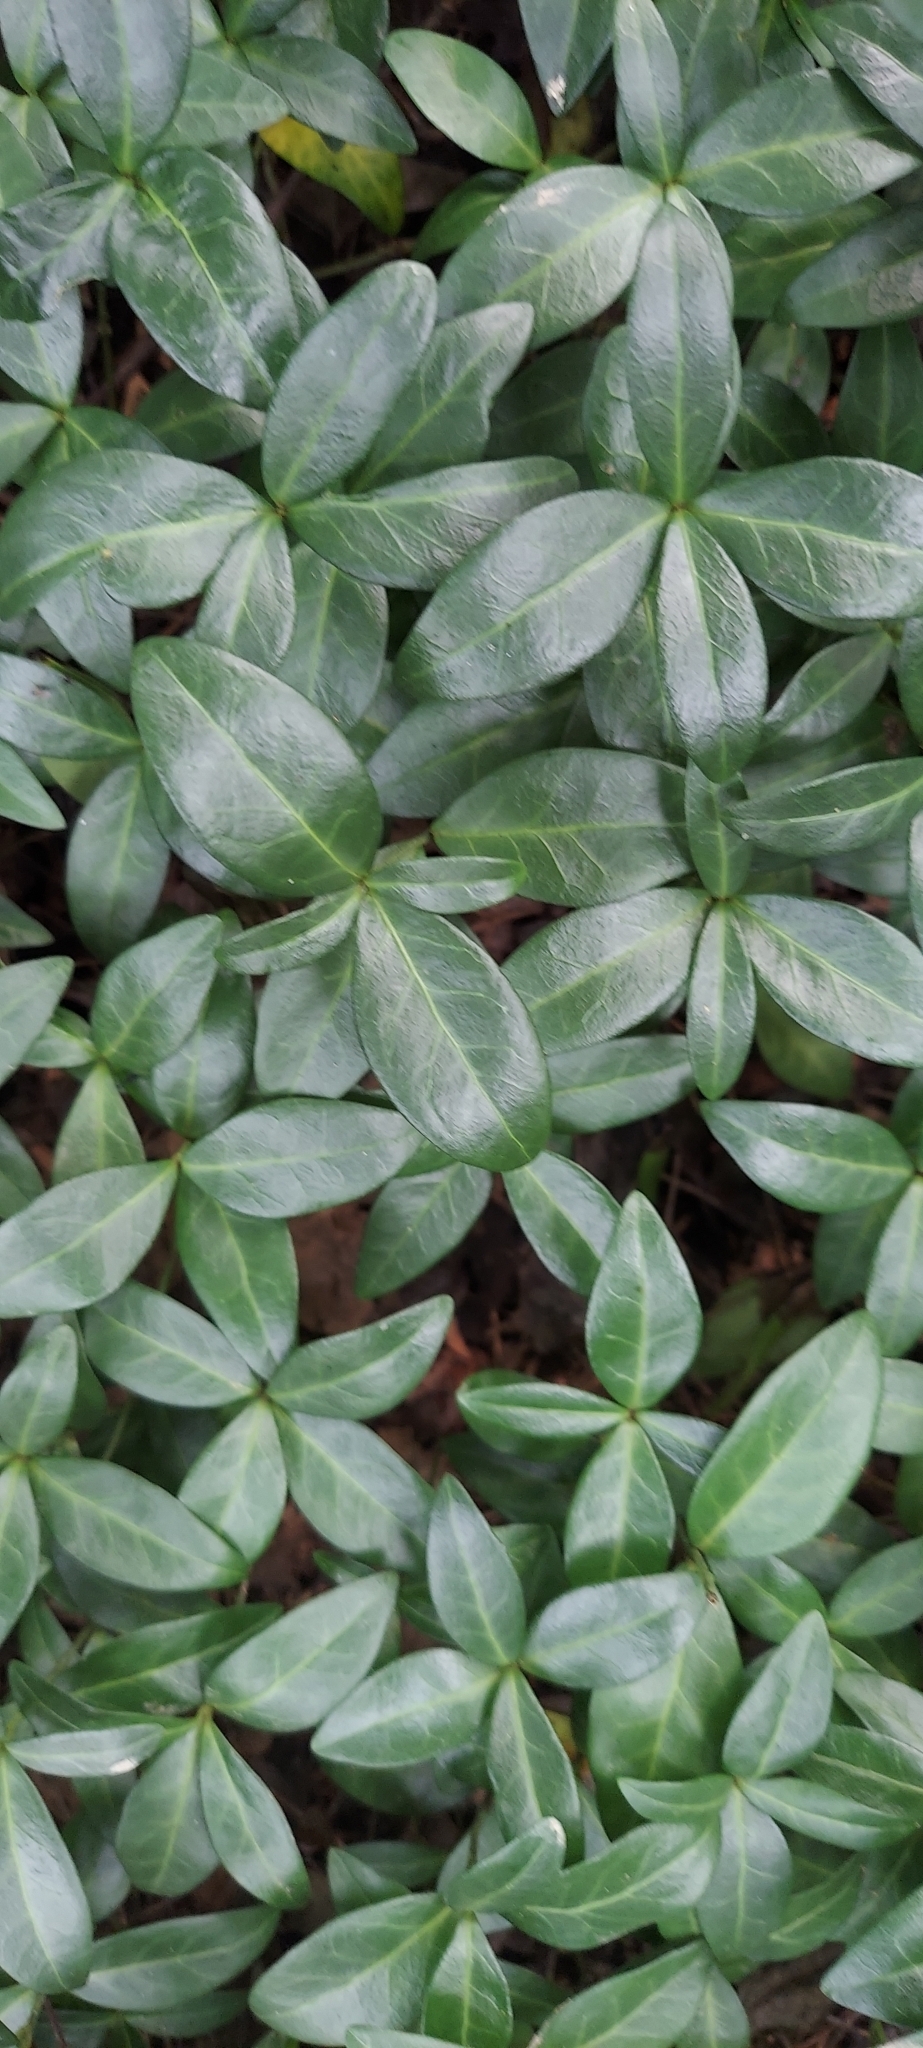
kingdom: Plantae
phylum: Tracheophyta
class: Magnoliopsida
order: Gentianales
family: Apocynaceae
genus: Vinca
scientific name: Vinca minor
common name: Lesser periwinkle
